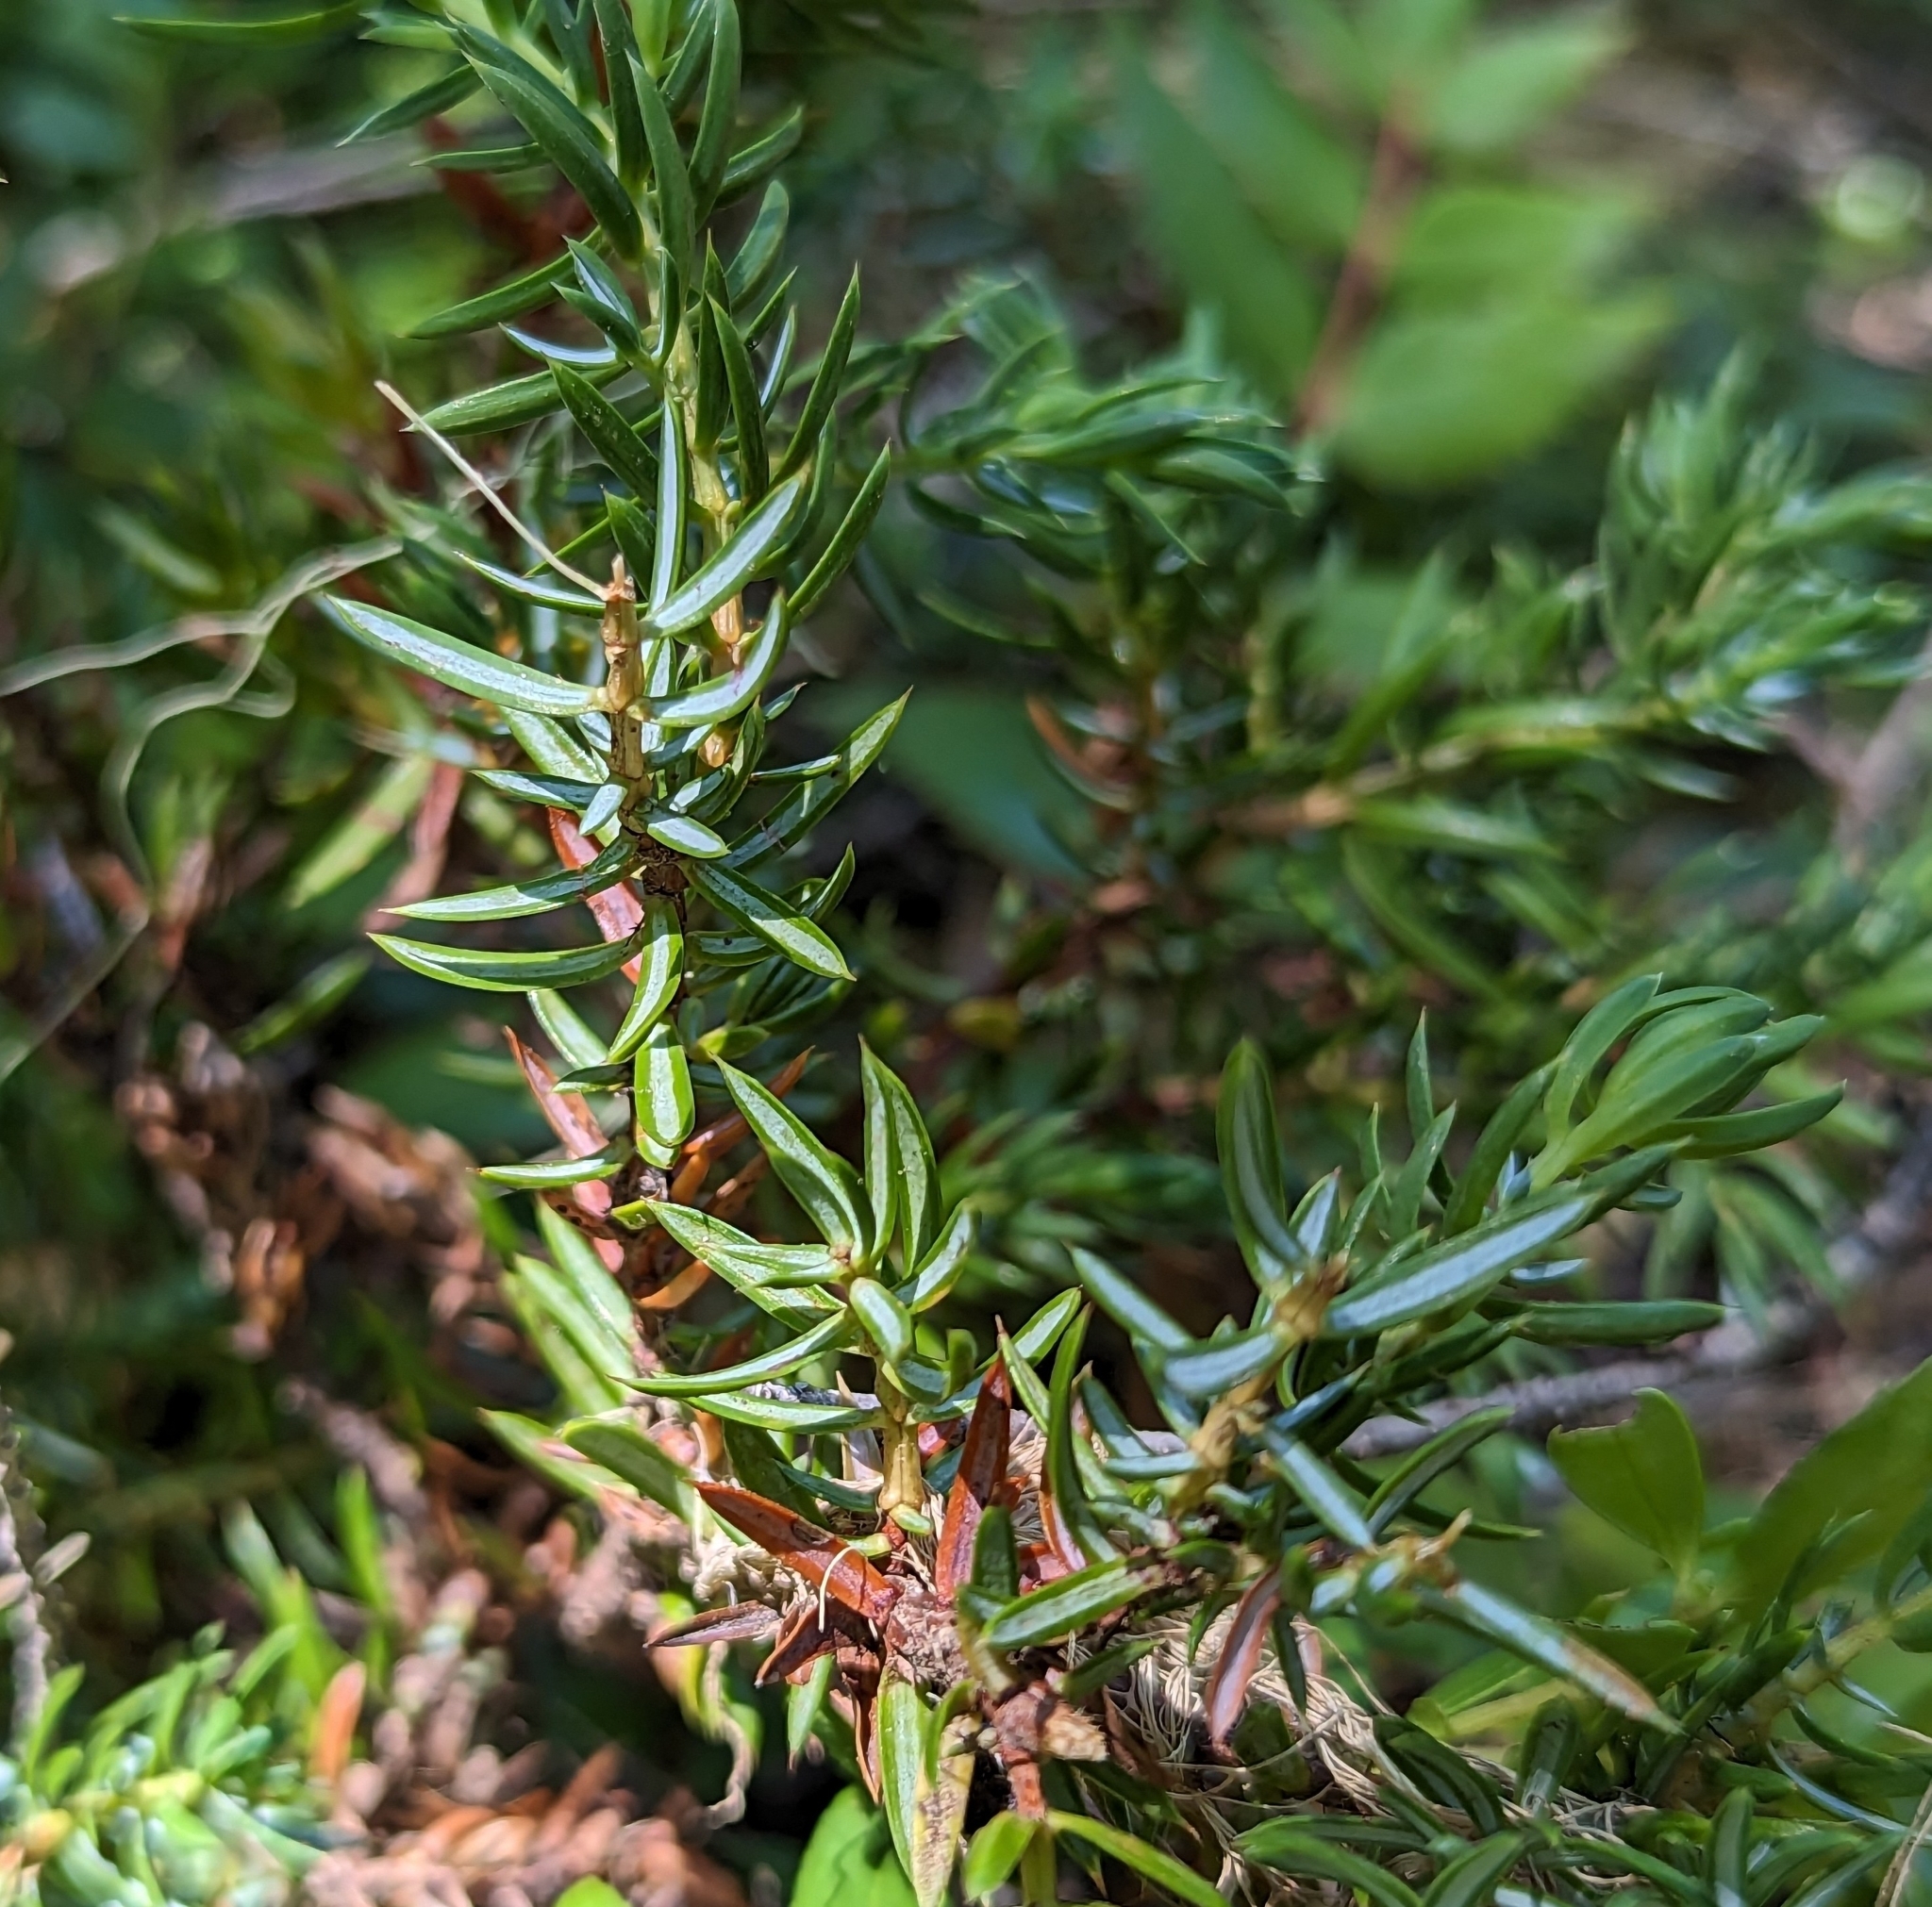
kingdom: Plantae
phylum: Tracheophyta
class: Pinopsida
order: Pinales
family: Cupressaceae
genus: Juniperus
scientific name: Juniperus communis
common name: Common juniper
